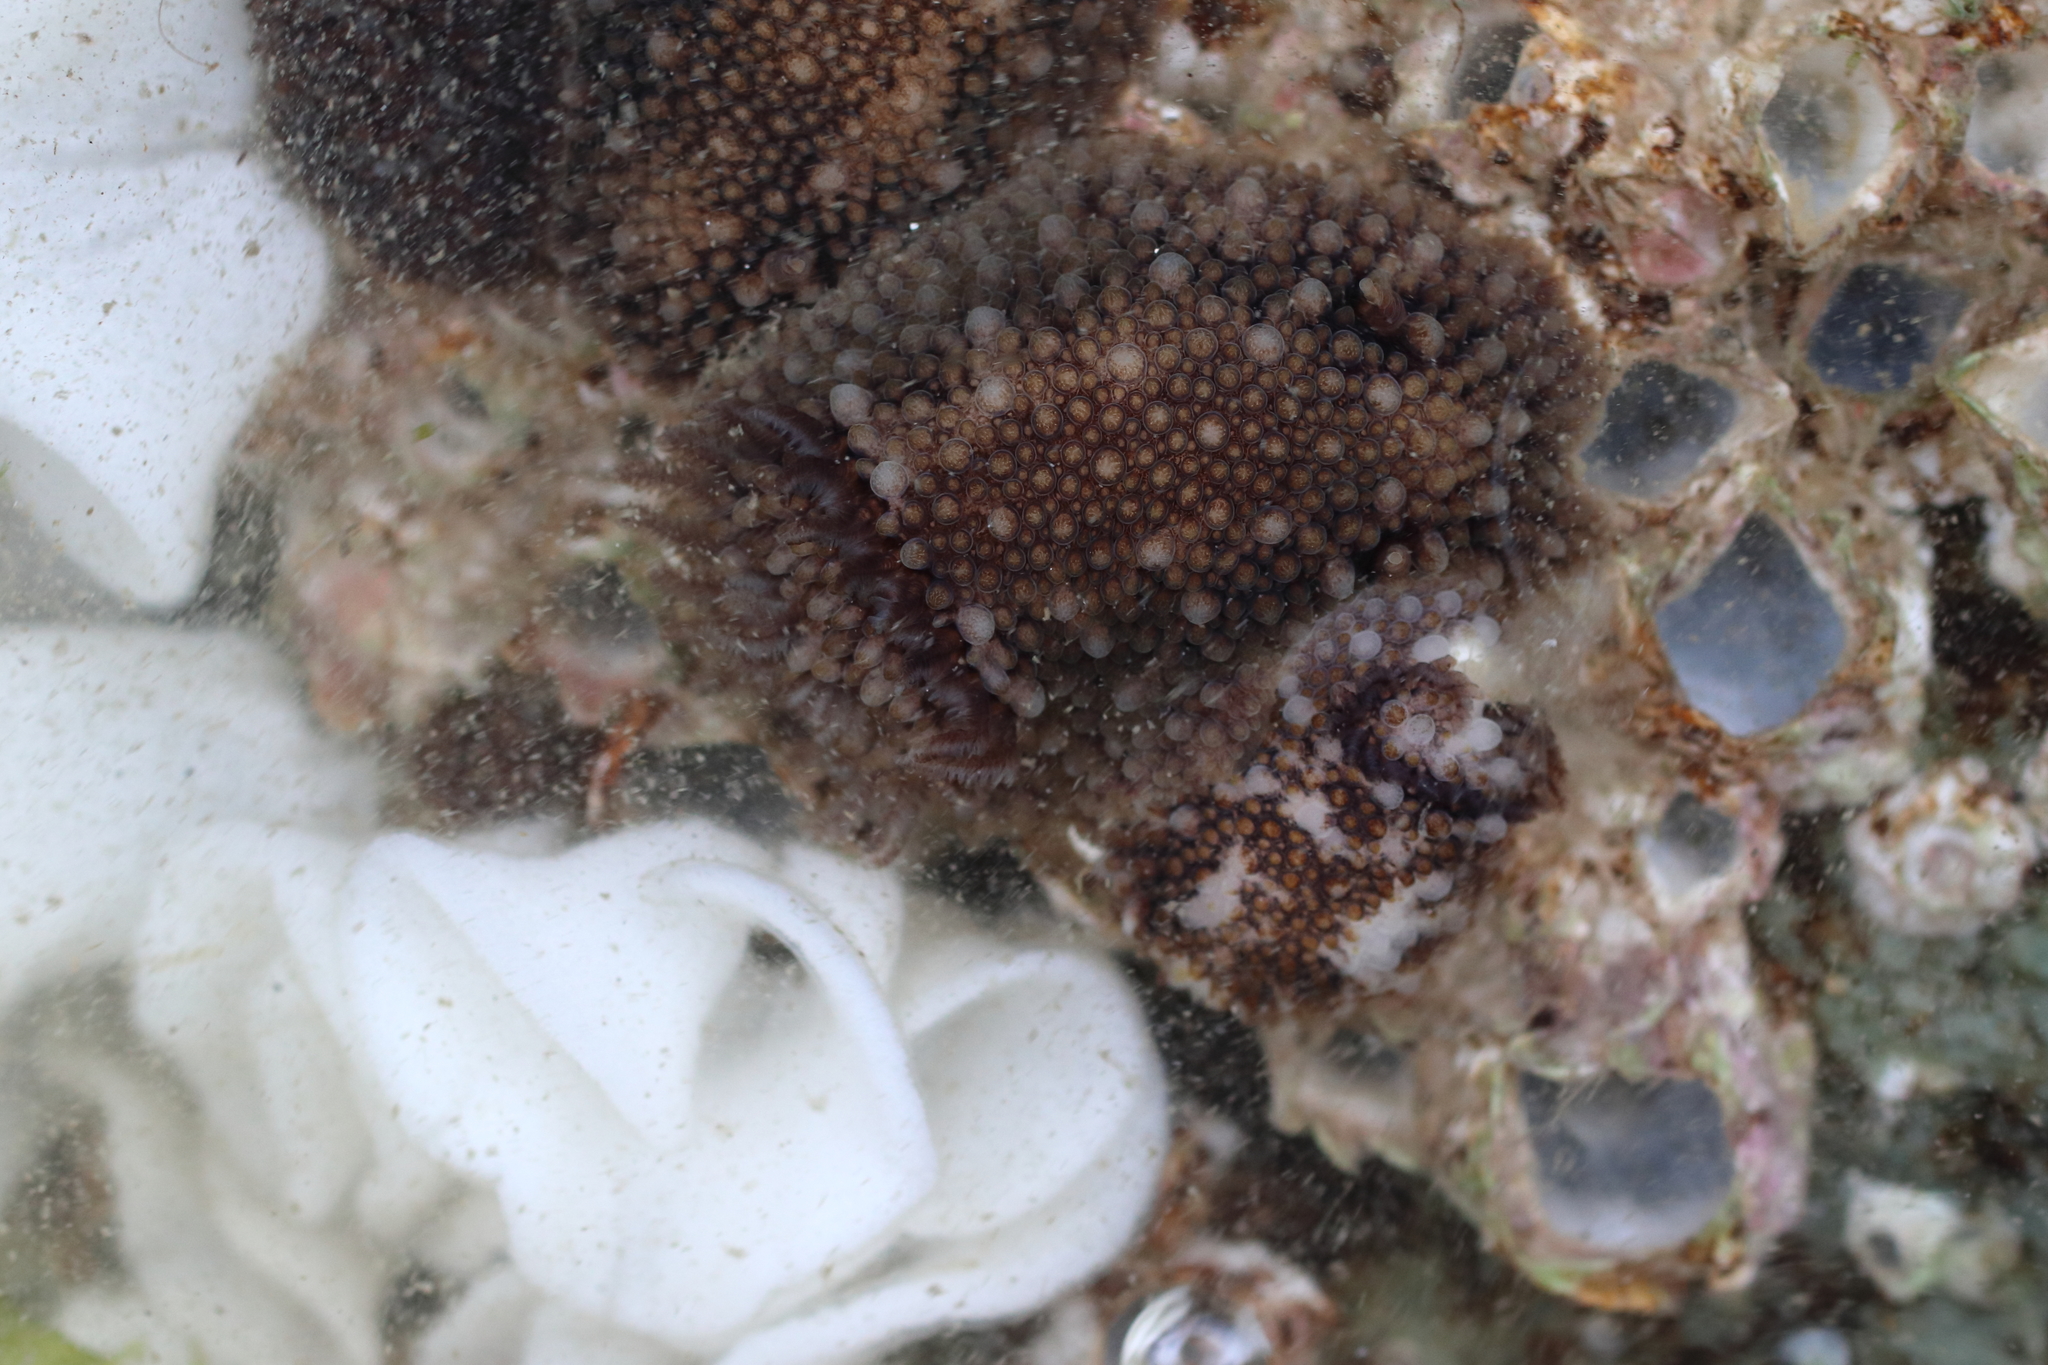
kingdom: Animalia
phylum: Mollusca
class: Gastropoda
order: Nudibranchia
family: Onchidorididae
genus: Onchidoris
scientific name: Onchidoris bilamellata
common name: Barnacle-eating onchidoris
